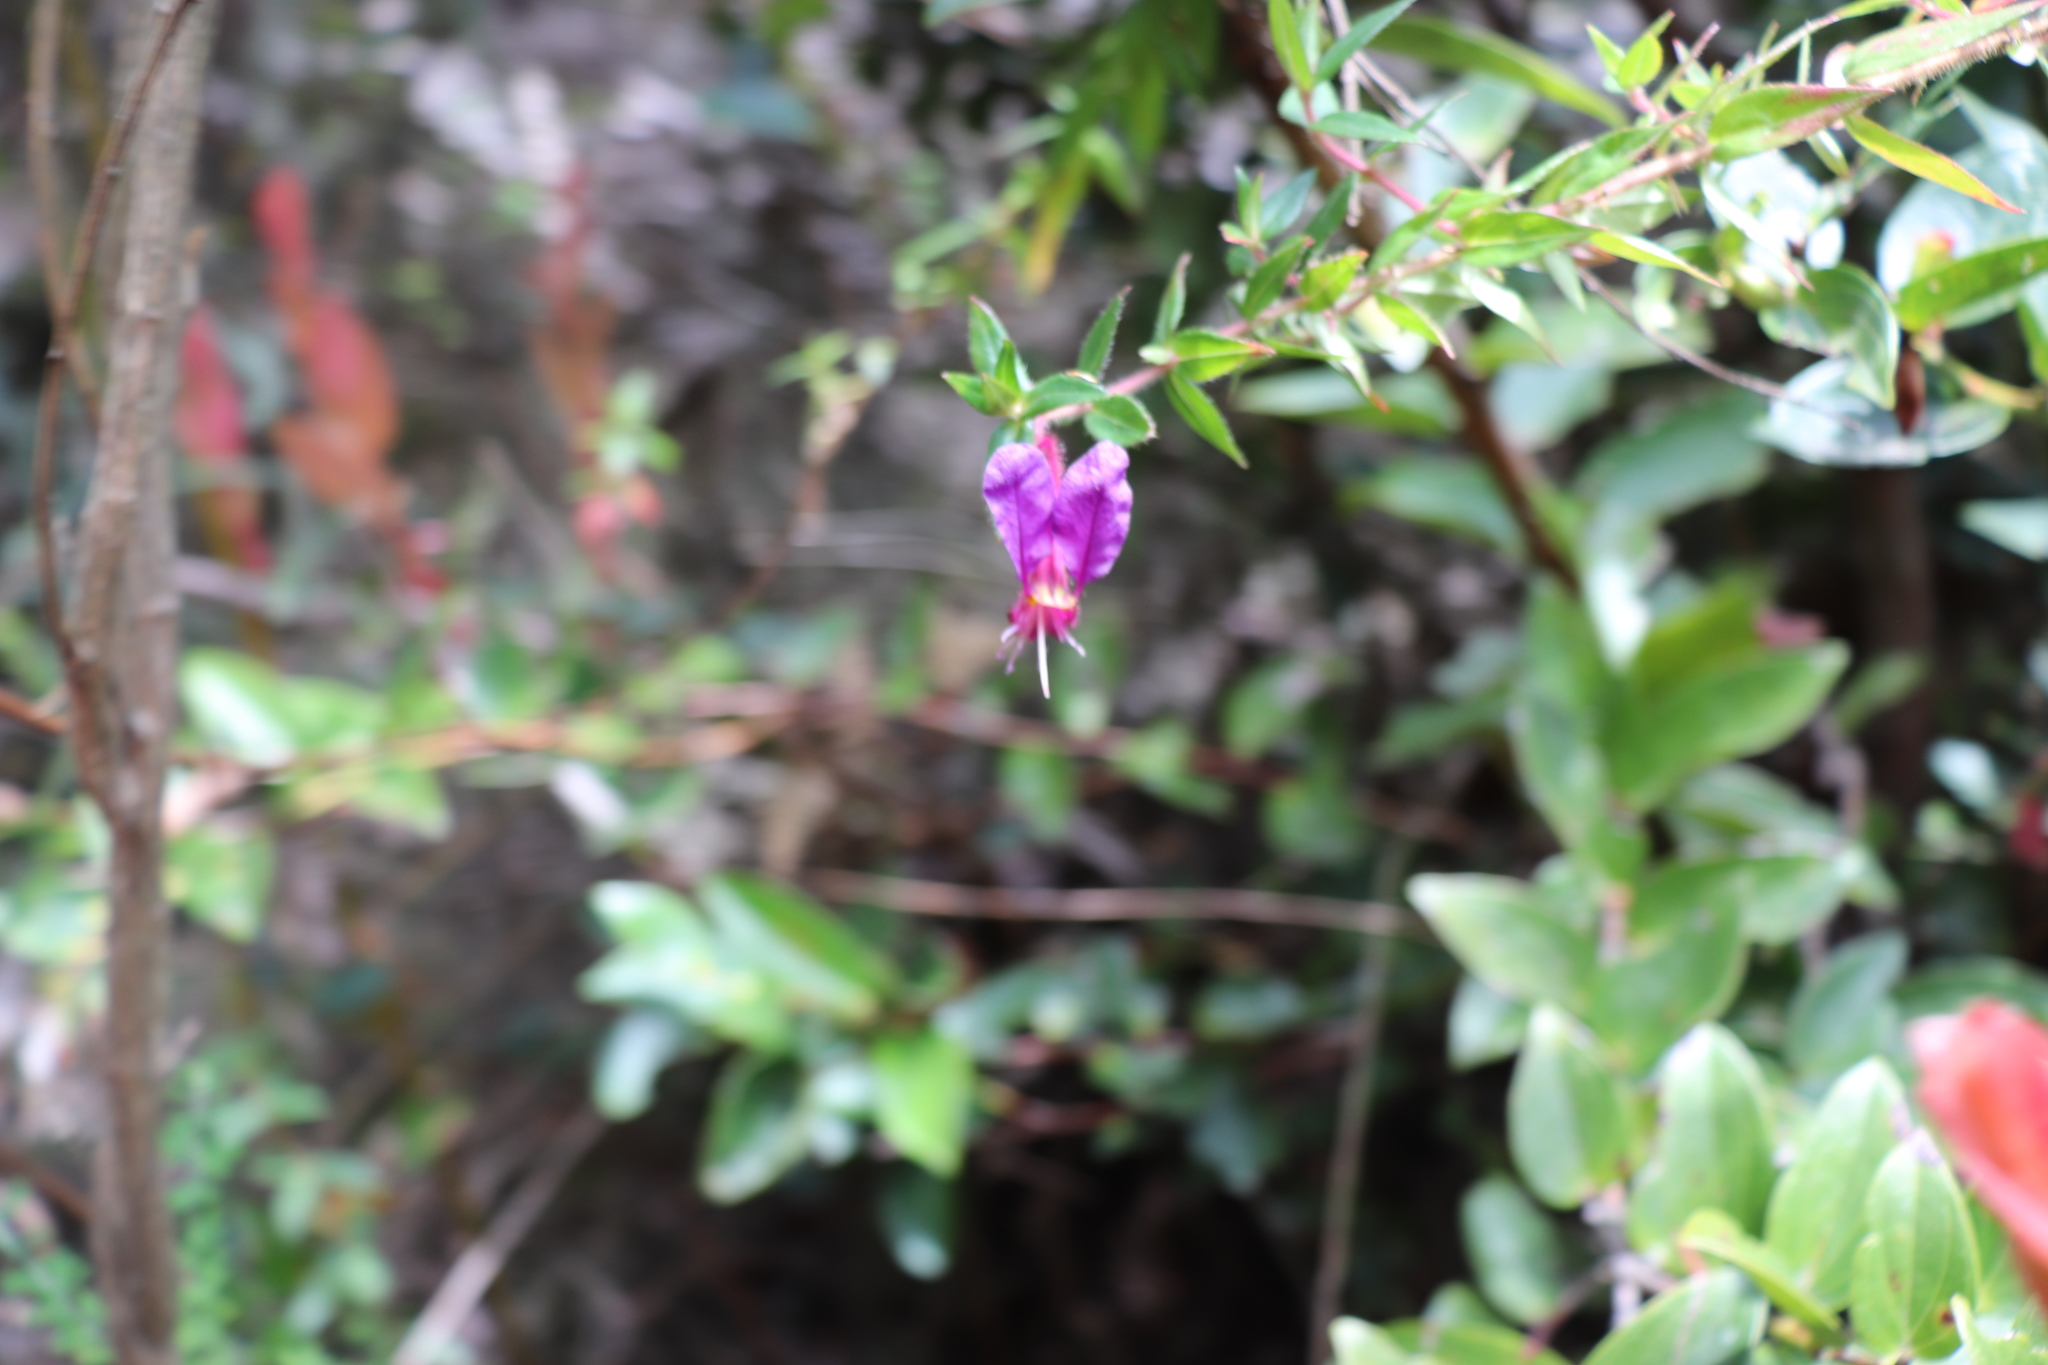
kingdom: Plantae
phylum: Tracheophyta
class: Magnoliopsida
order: Myrtales
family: Lythraceae
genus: Cuphea
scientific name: Cuphea dipetala
